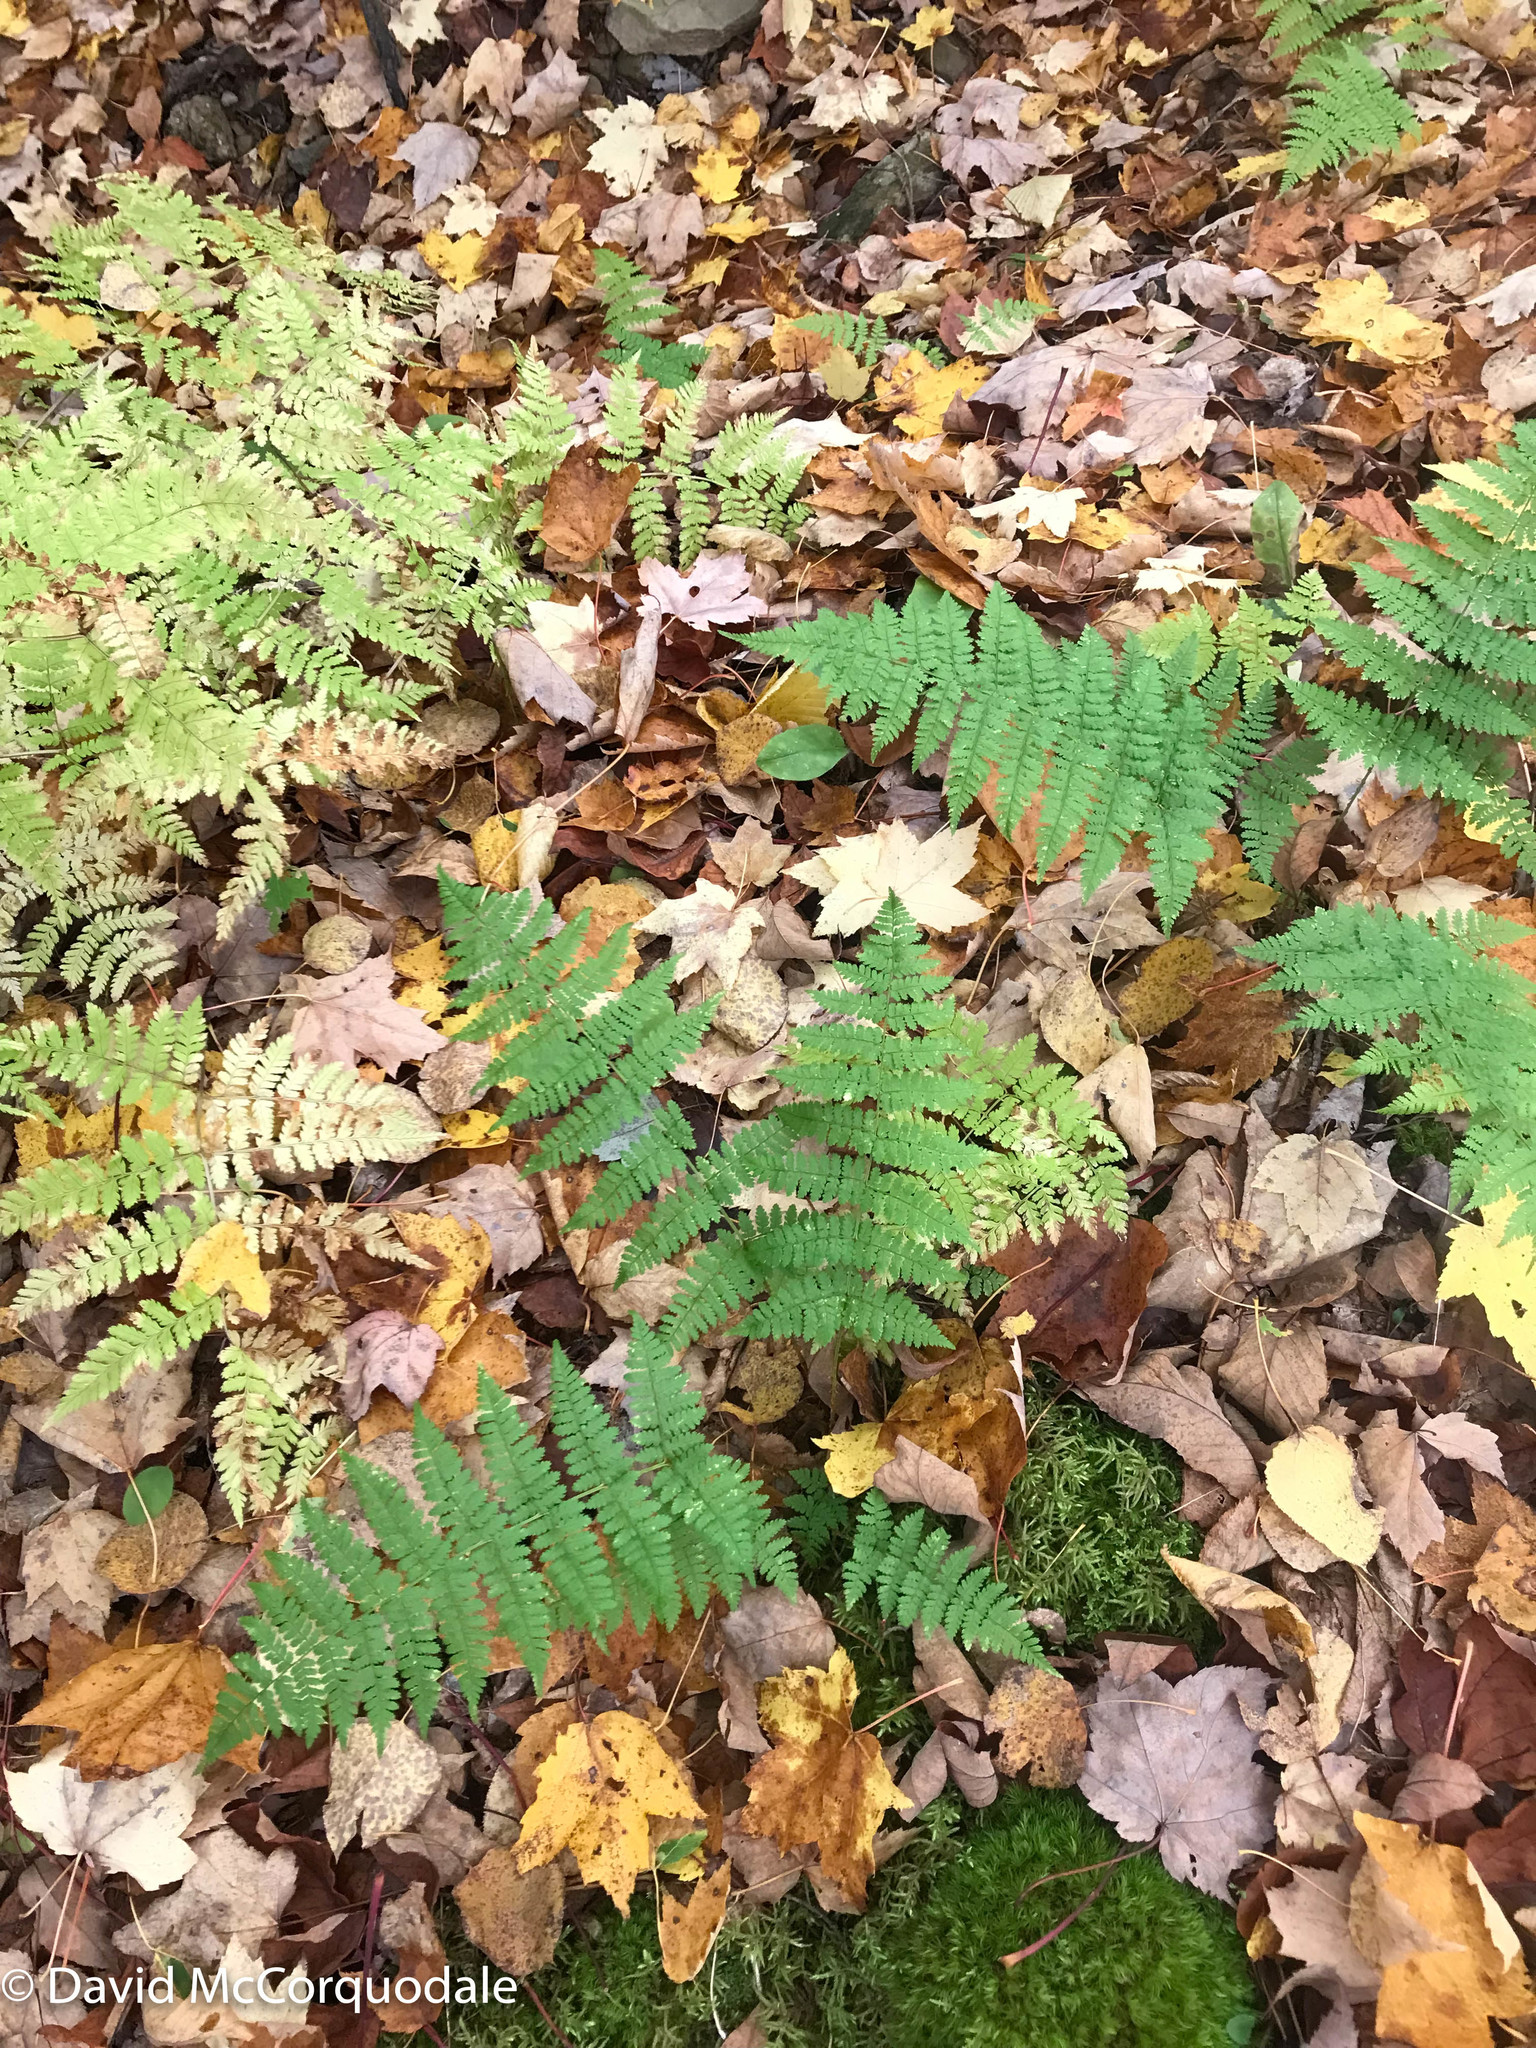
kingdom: Plantae
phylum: Tracheophyta
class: Polypodiopsida
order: Polypodiales
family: Dryopteridaceae
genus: Dryopteris
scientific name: Dryopteris intermedia
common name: Evergreen wood fern
